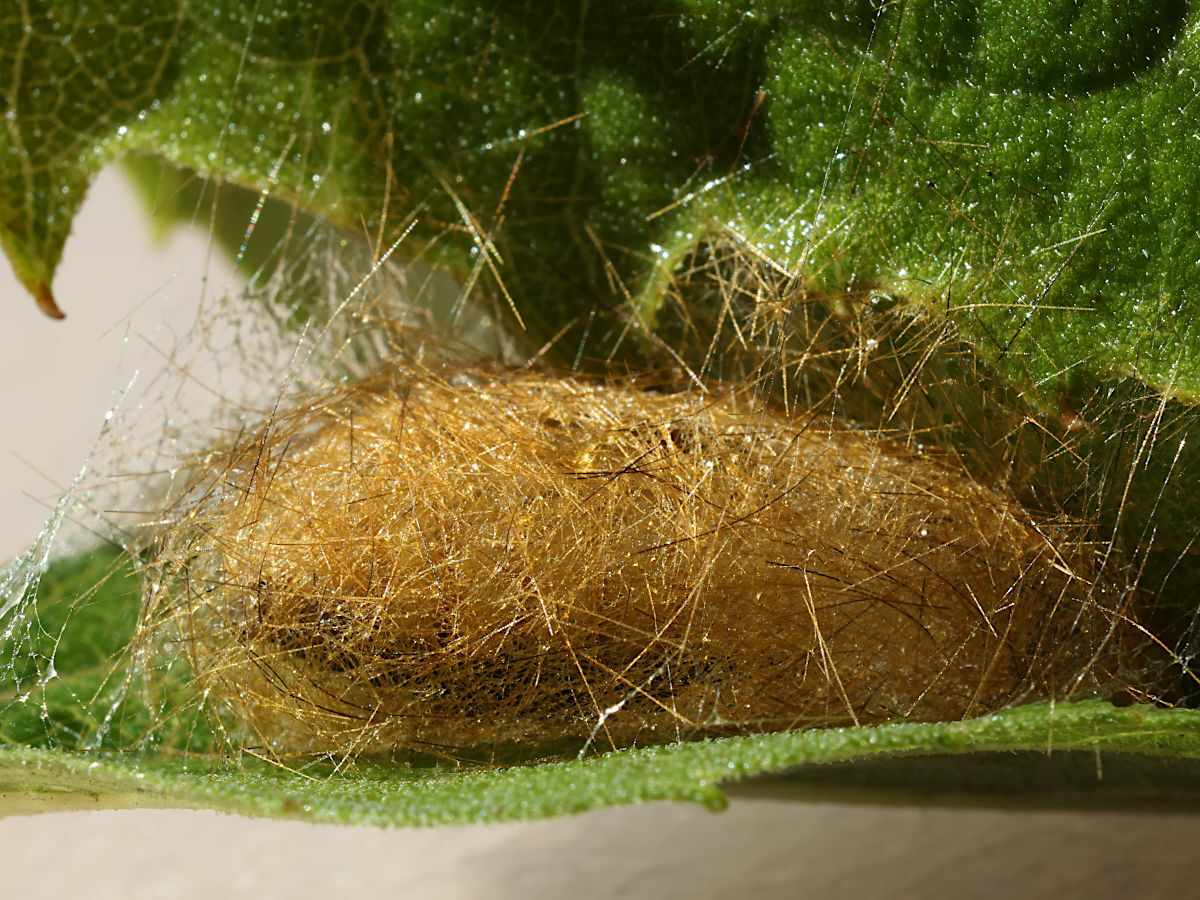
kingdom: Animalia
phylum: Arthropoda
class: Insecta
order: Lepidoptera
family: Erebidae
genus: Spilosoma
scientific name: Spilosoma virginica
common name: Virginia tiger moth
